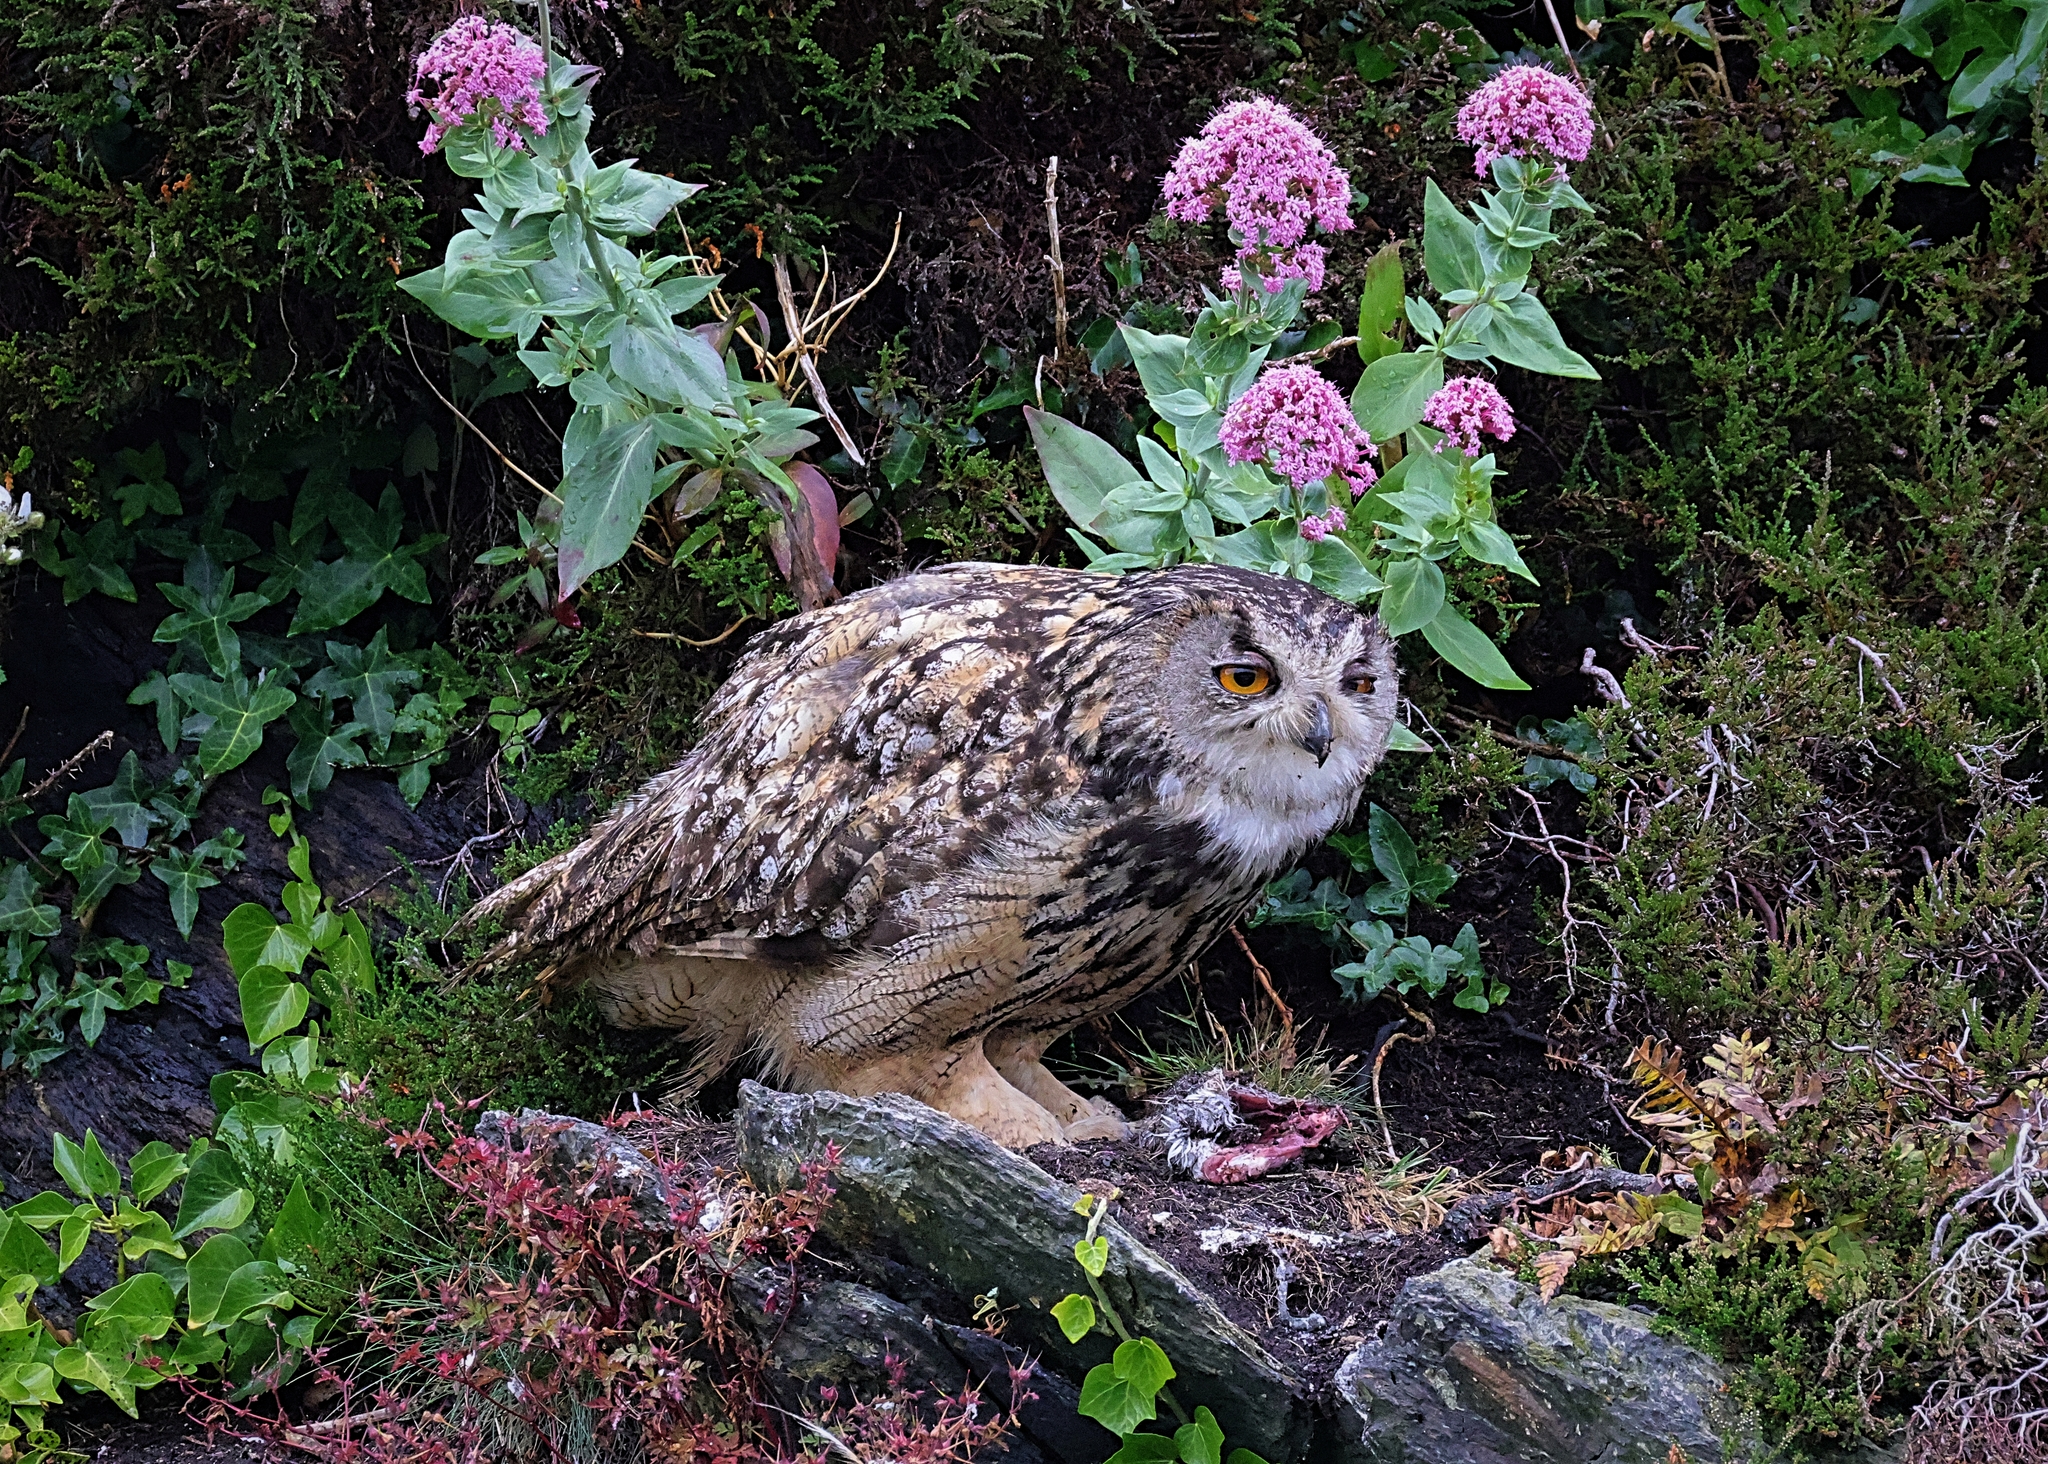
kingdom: Animalia
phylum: Chordata
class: Aves
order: Strigiformes
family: Strigidae
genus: Bubo
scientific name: Bubo bubo
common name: Eurasian eagle-owl
